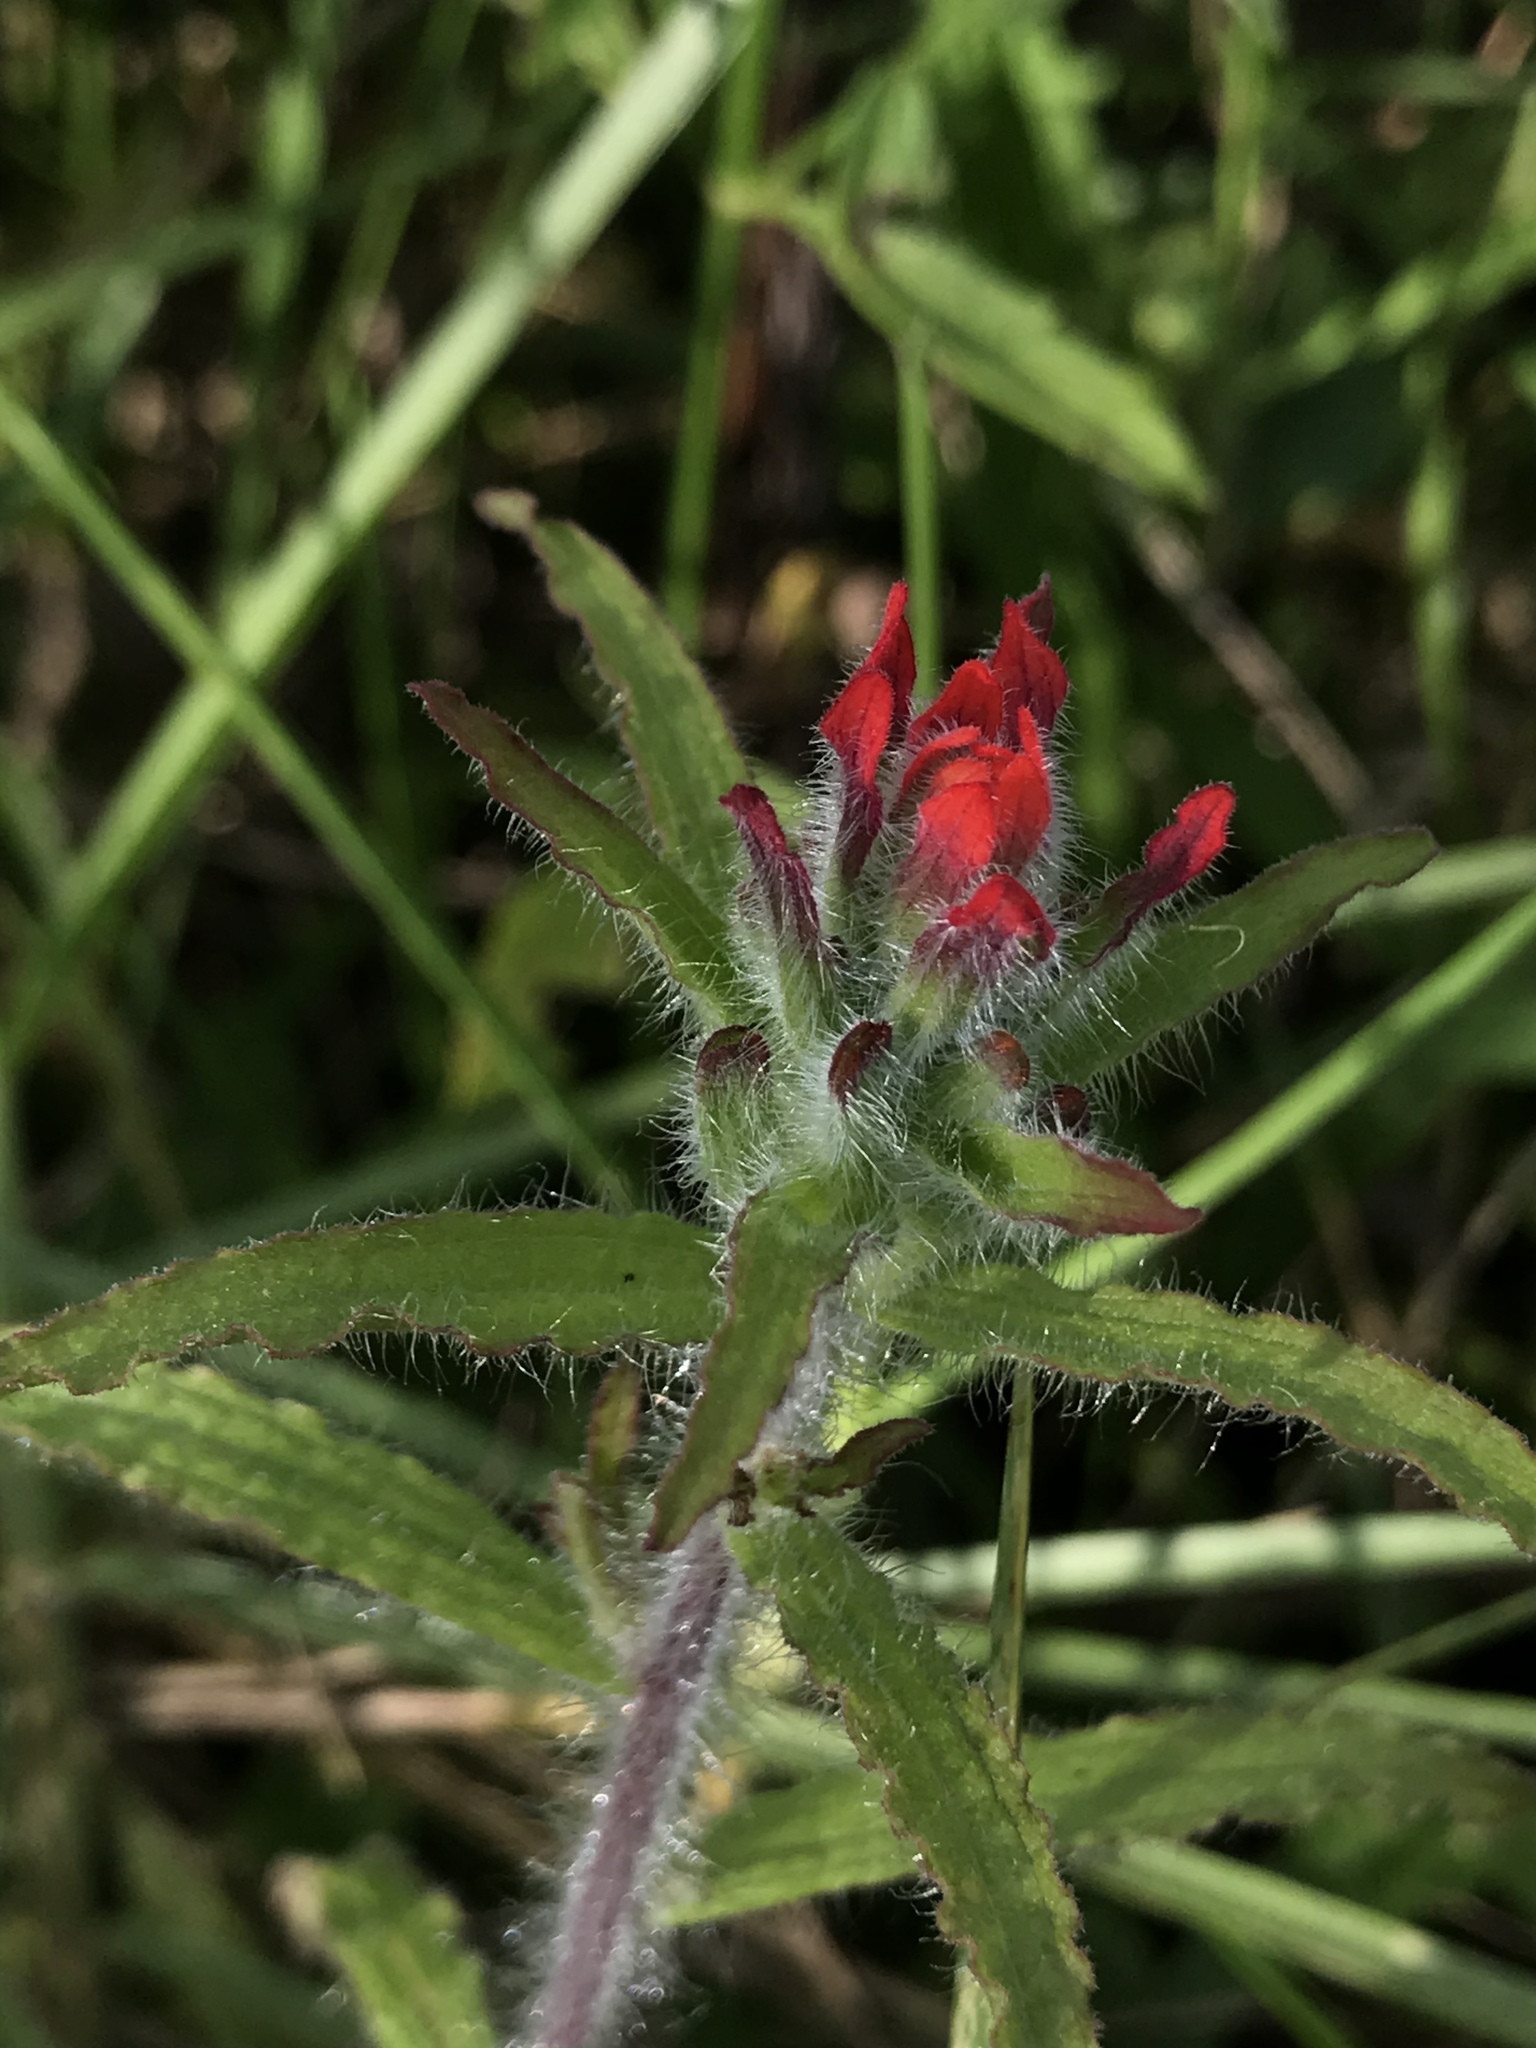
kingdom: Plantae
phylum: Tracheophyta
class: Magnoliopsida
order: Lamiales
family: Orobanchaceae
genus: Castilleja
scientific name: Castilleja arvensis
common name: Indian paintbrush
